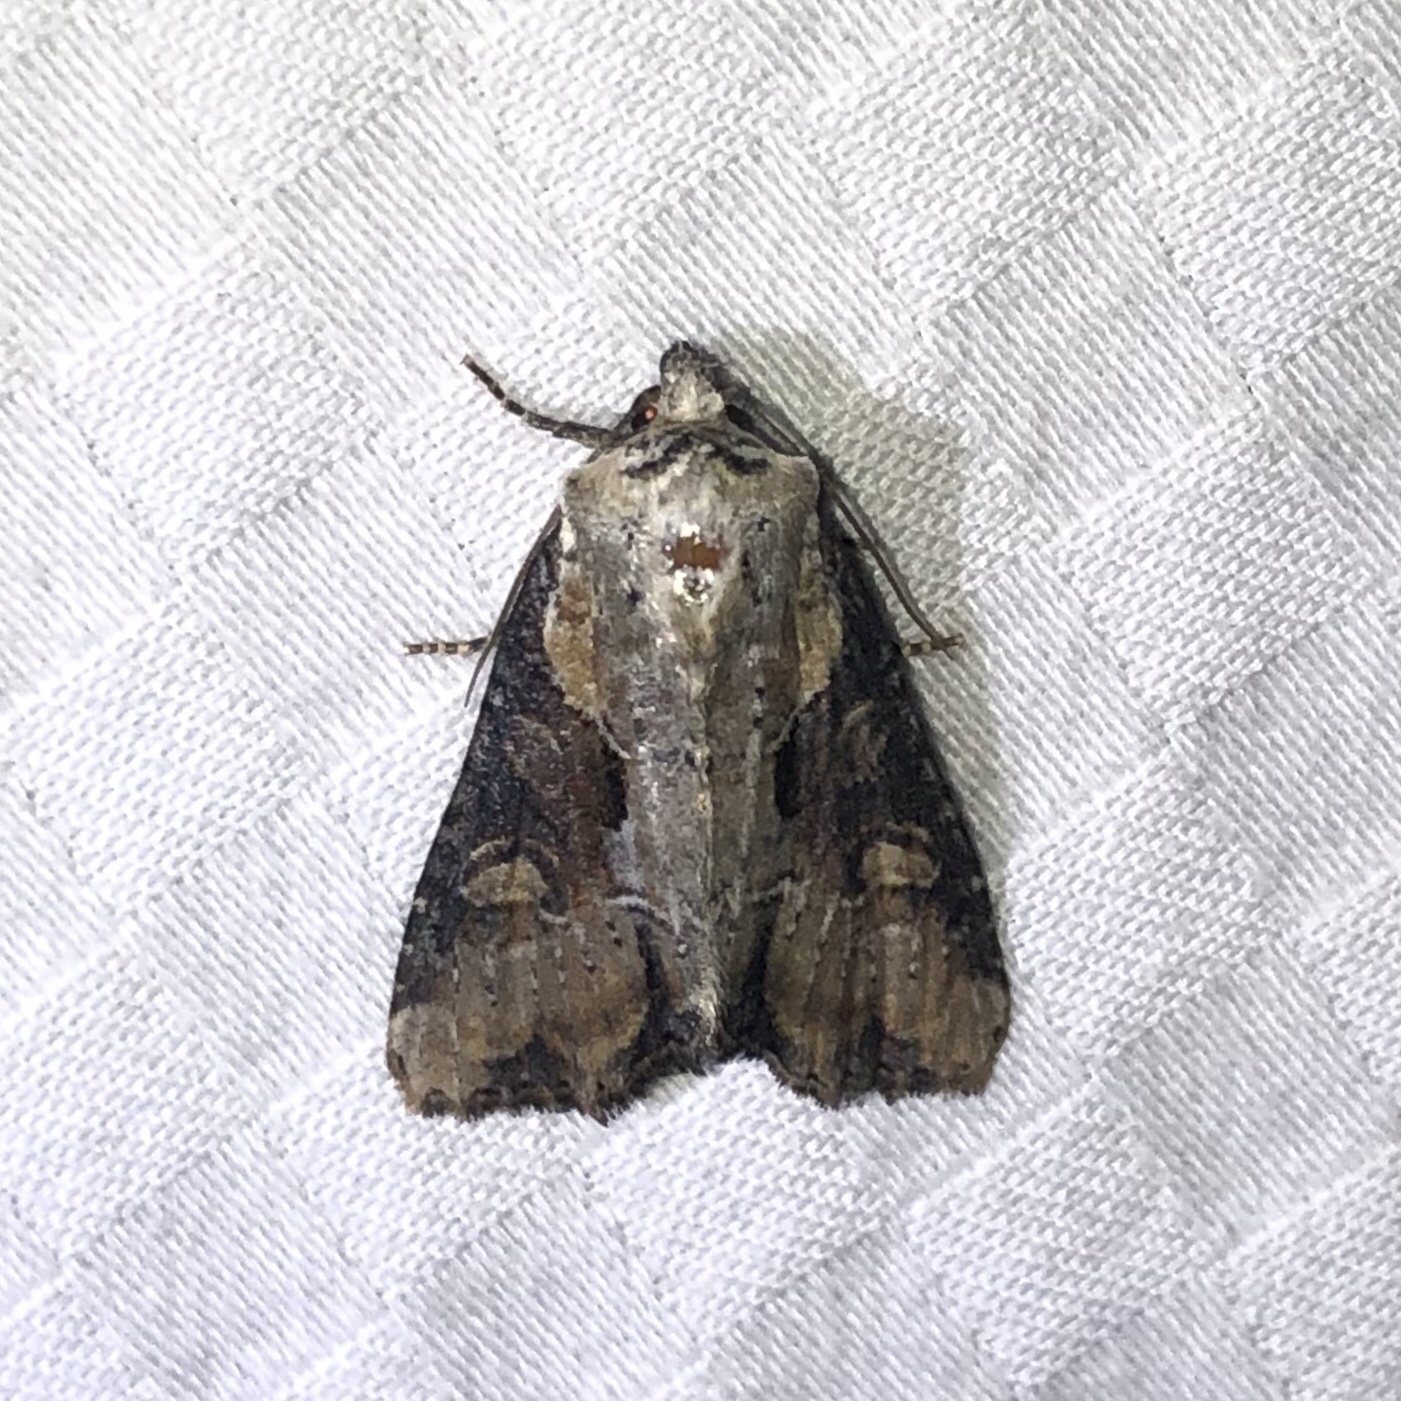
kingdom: Animalia
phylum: Arthropoda
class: Insecta
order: Lepidoptera
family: Noctuidae
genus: Lateroligia
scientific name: Lateroligia ophiogramma
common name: Double lobed
